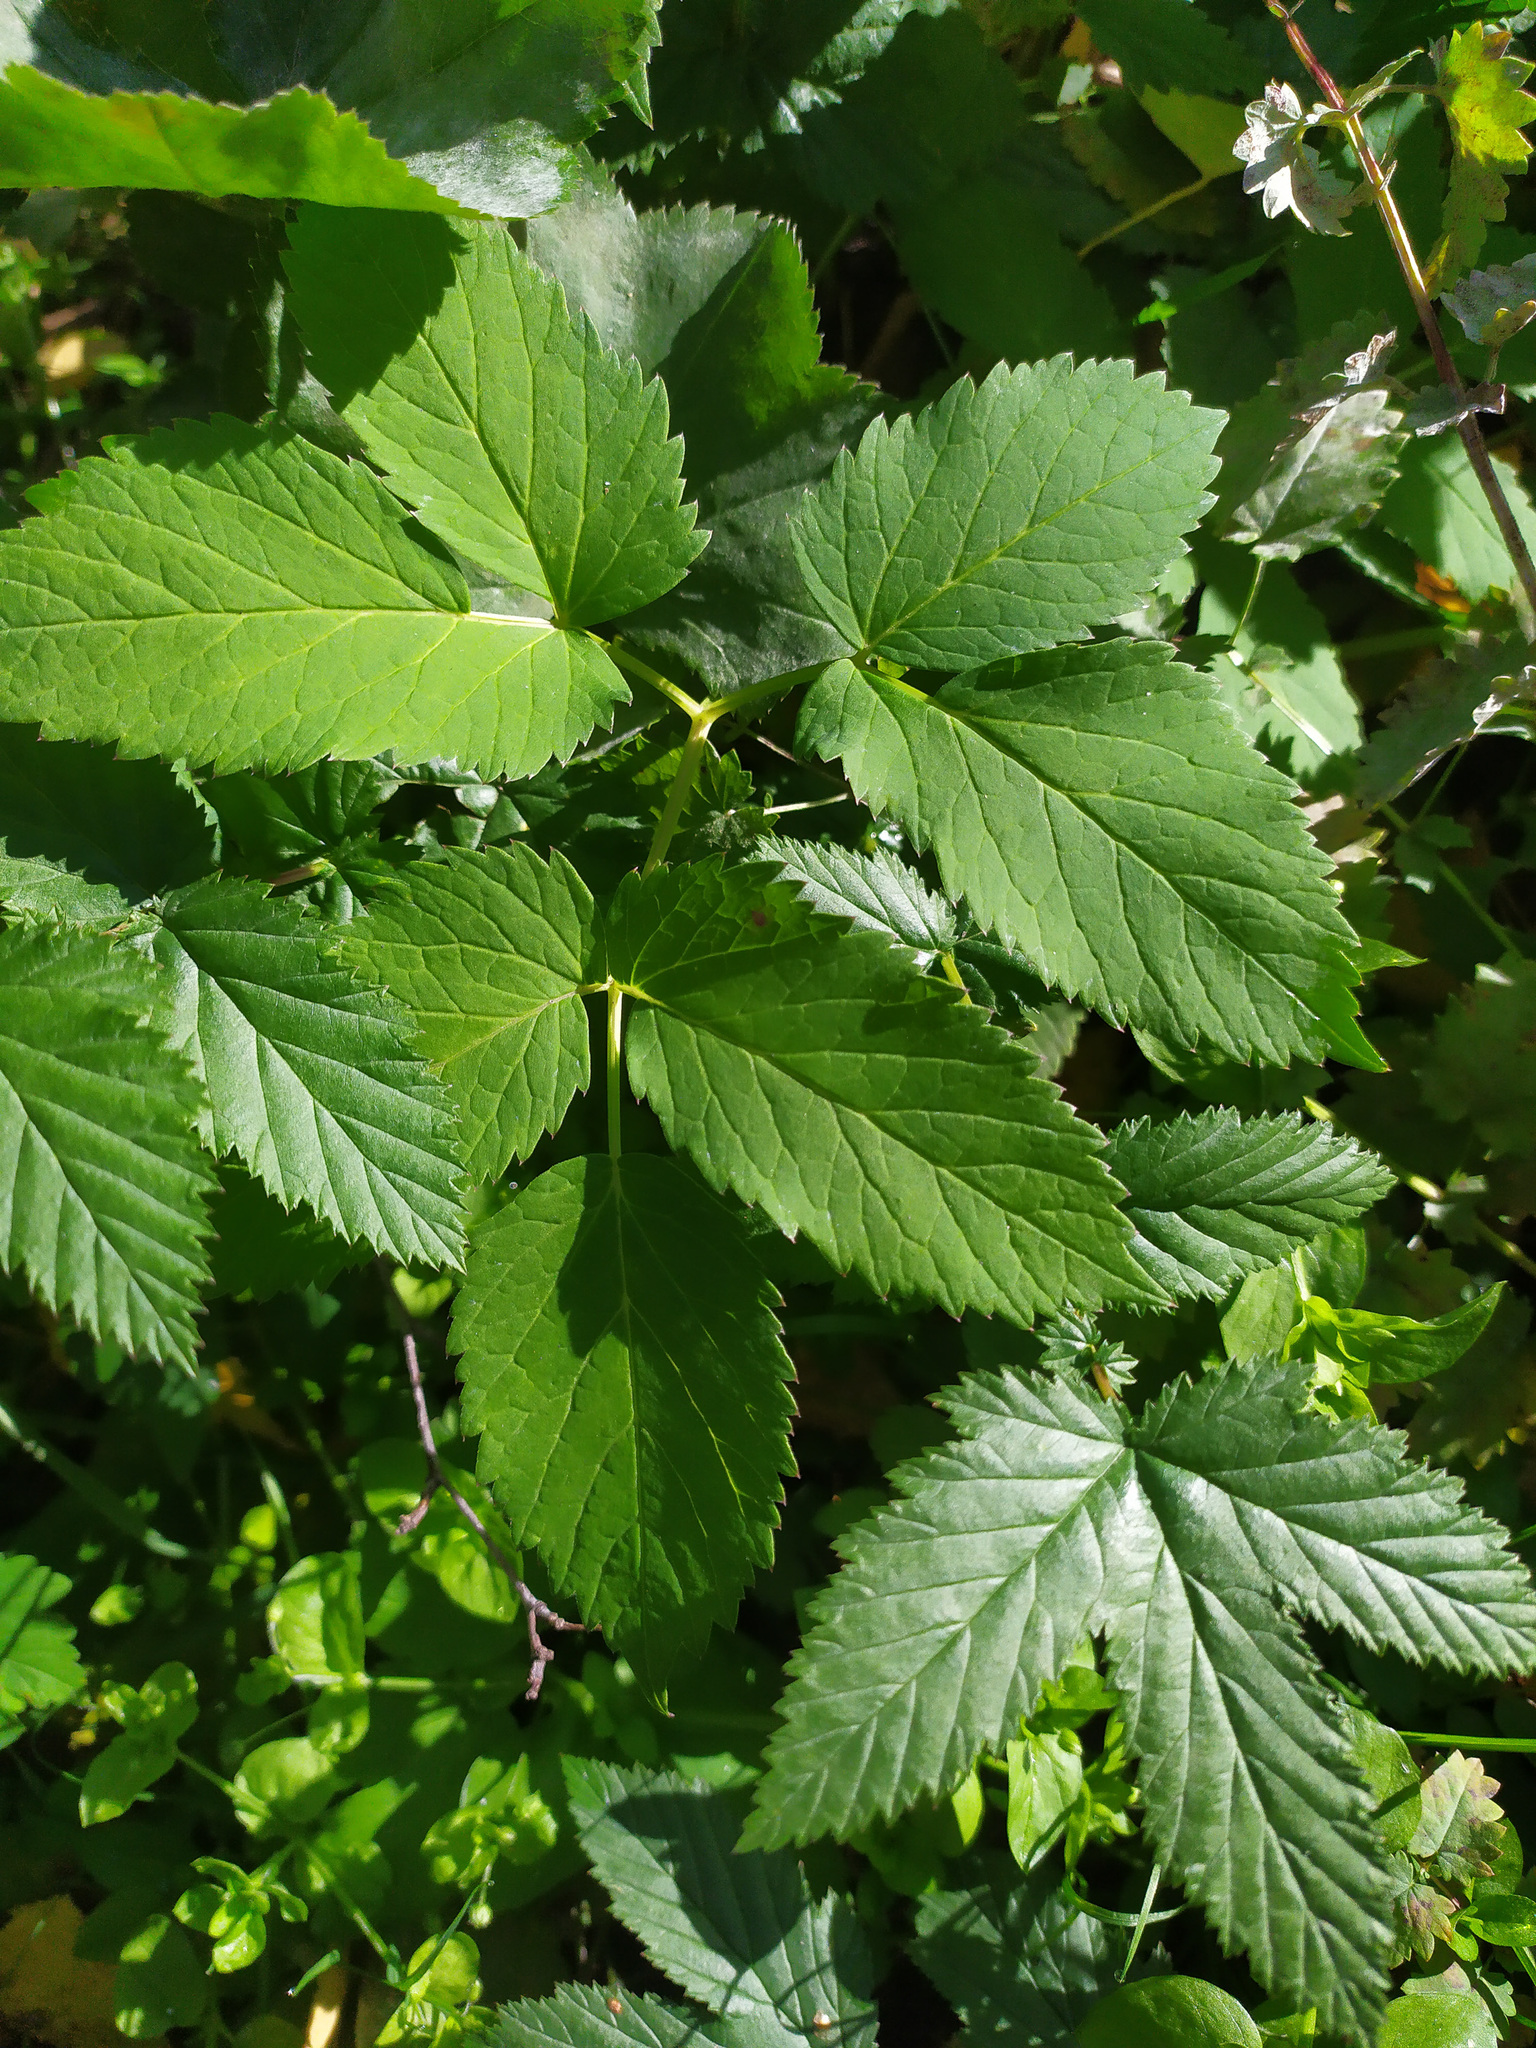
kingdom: Plantae
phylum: Tracheophyta
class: Magnoliopsida
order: Apiales
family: Apiaceae
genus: Aegopodium
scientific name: Aegopodium podagraria
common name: Ground-elder
